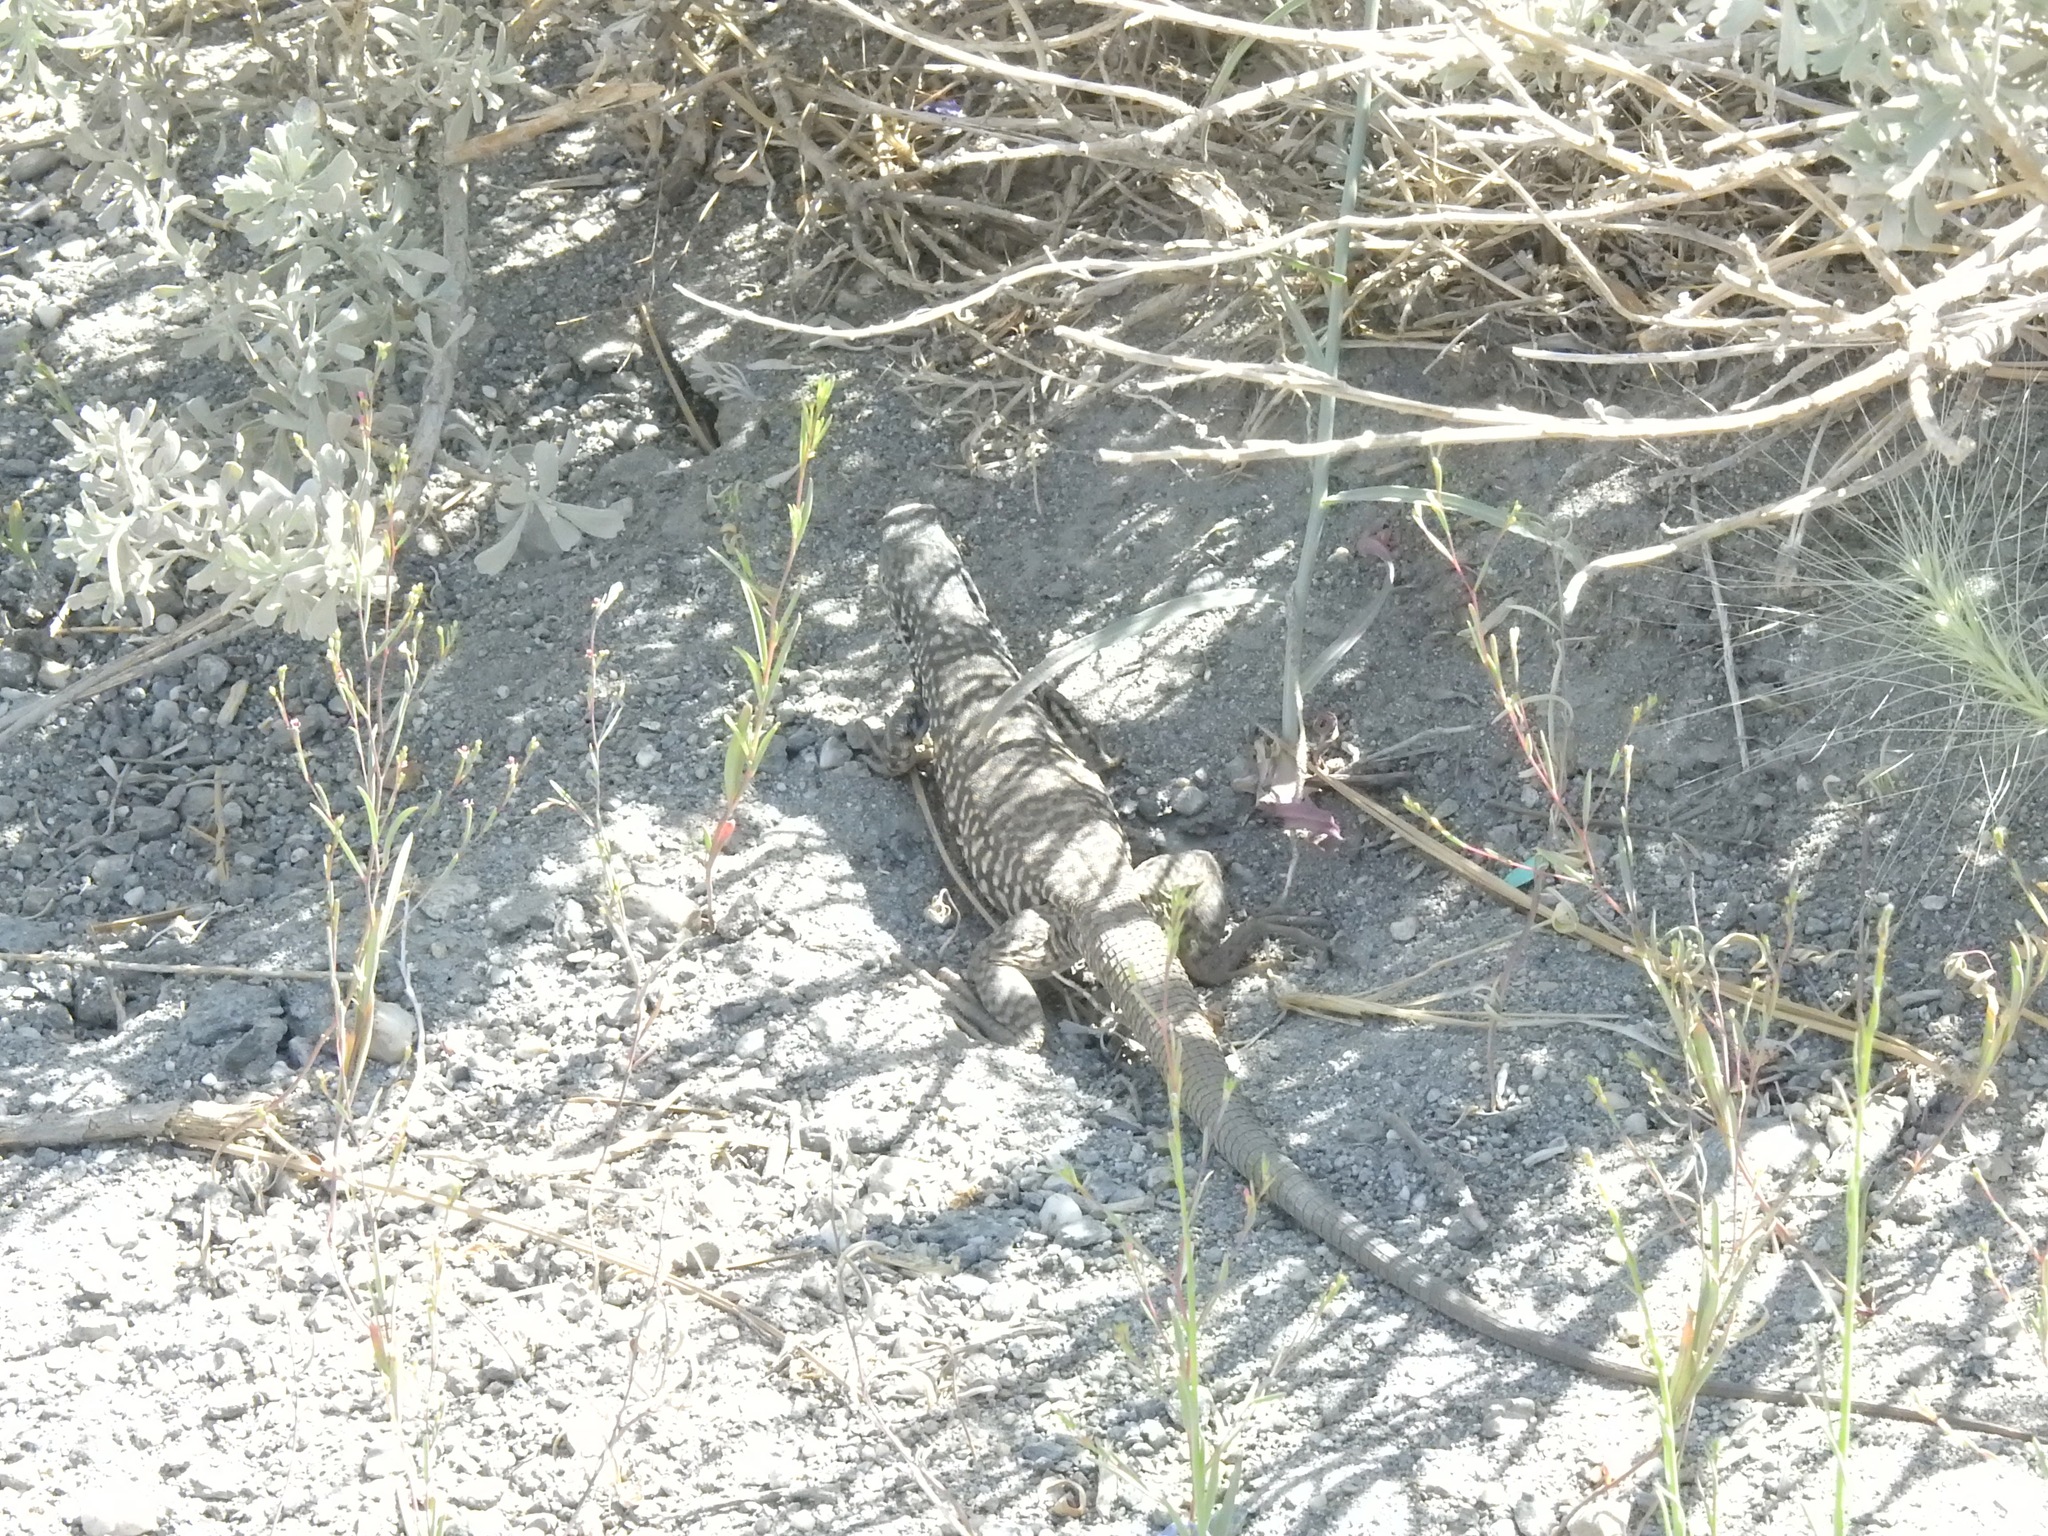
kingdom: Animalia
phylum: Chordata
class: Squamata
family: Teiidae
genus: Aspidoscelis
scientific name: Aspidoscelis tigris
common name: Tiger whiptail
